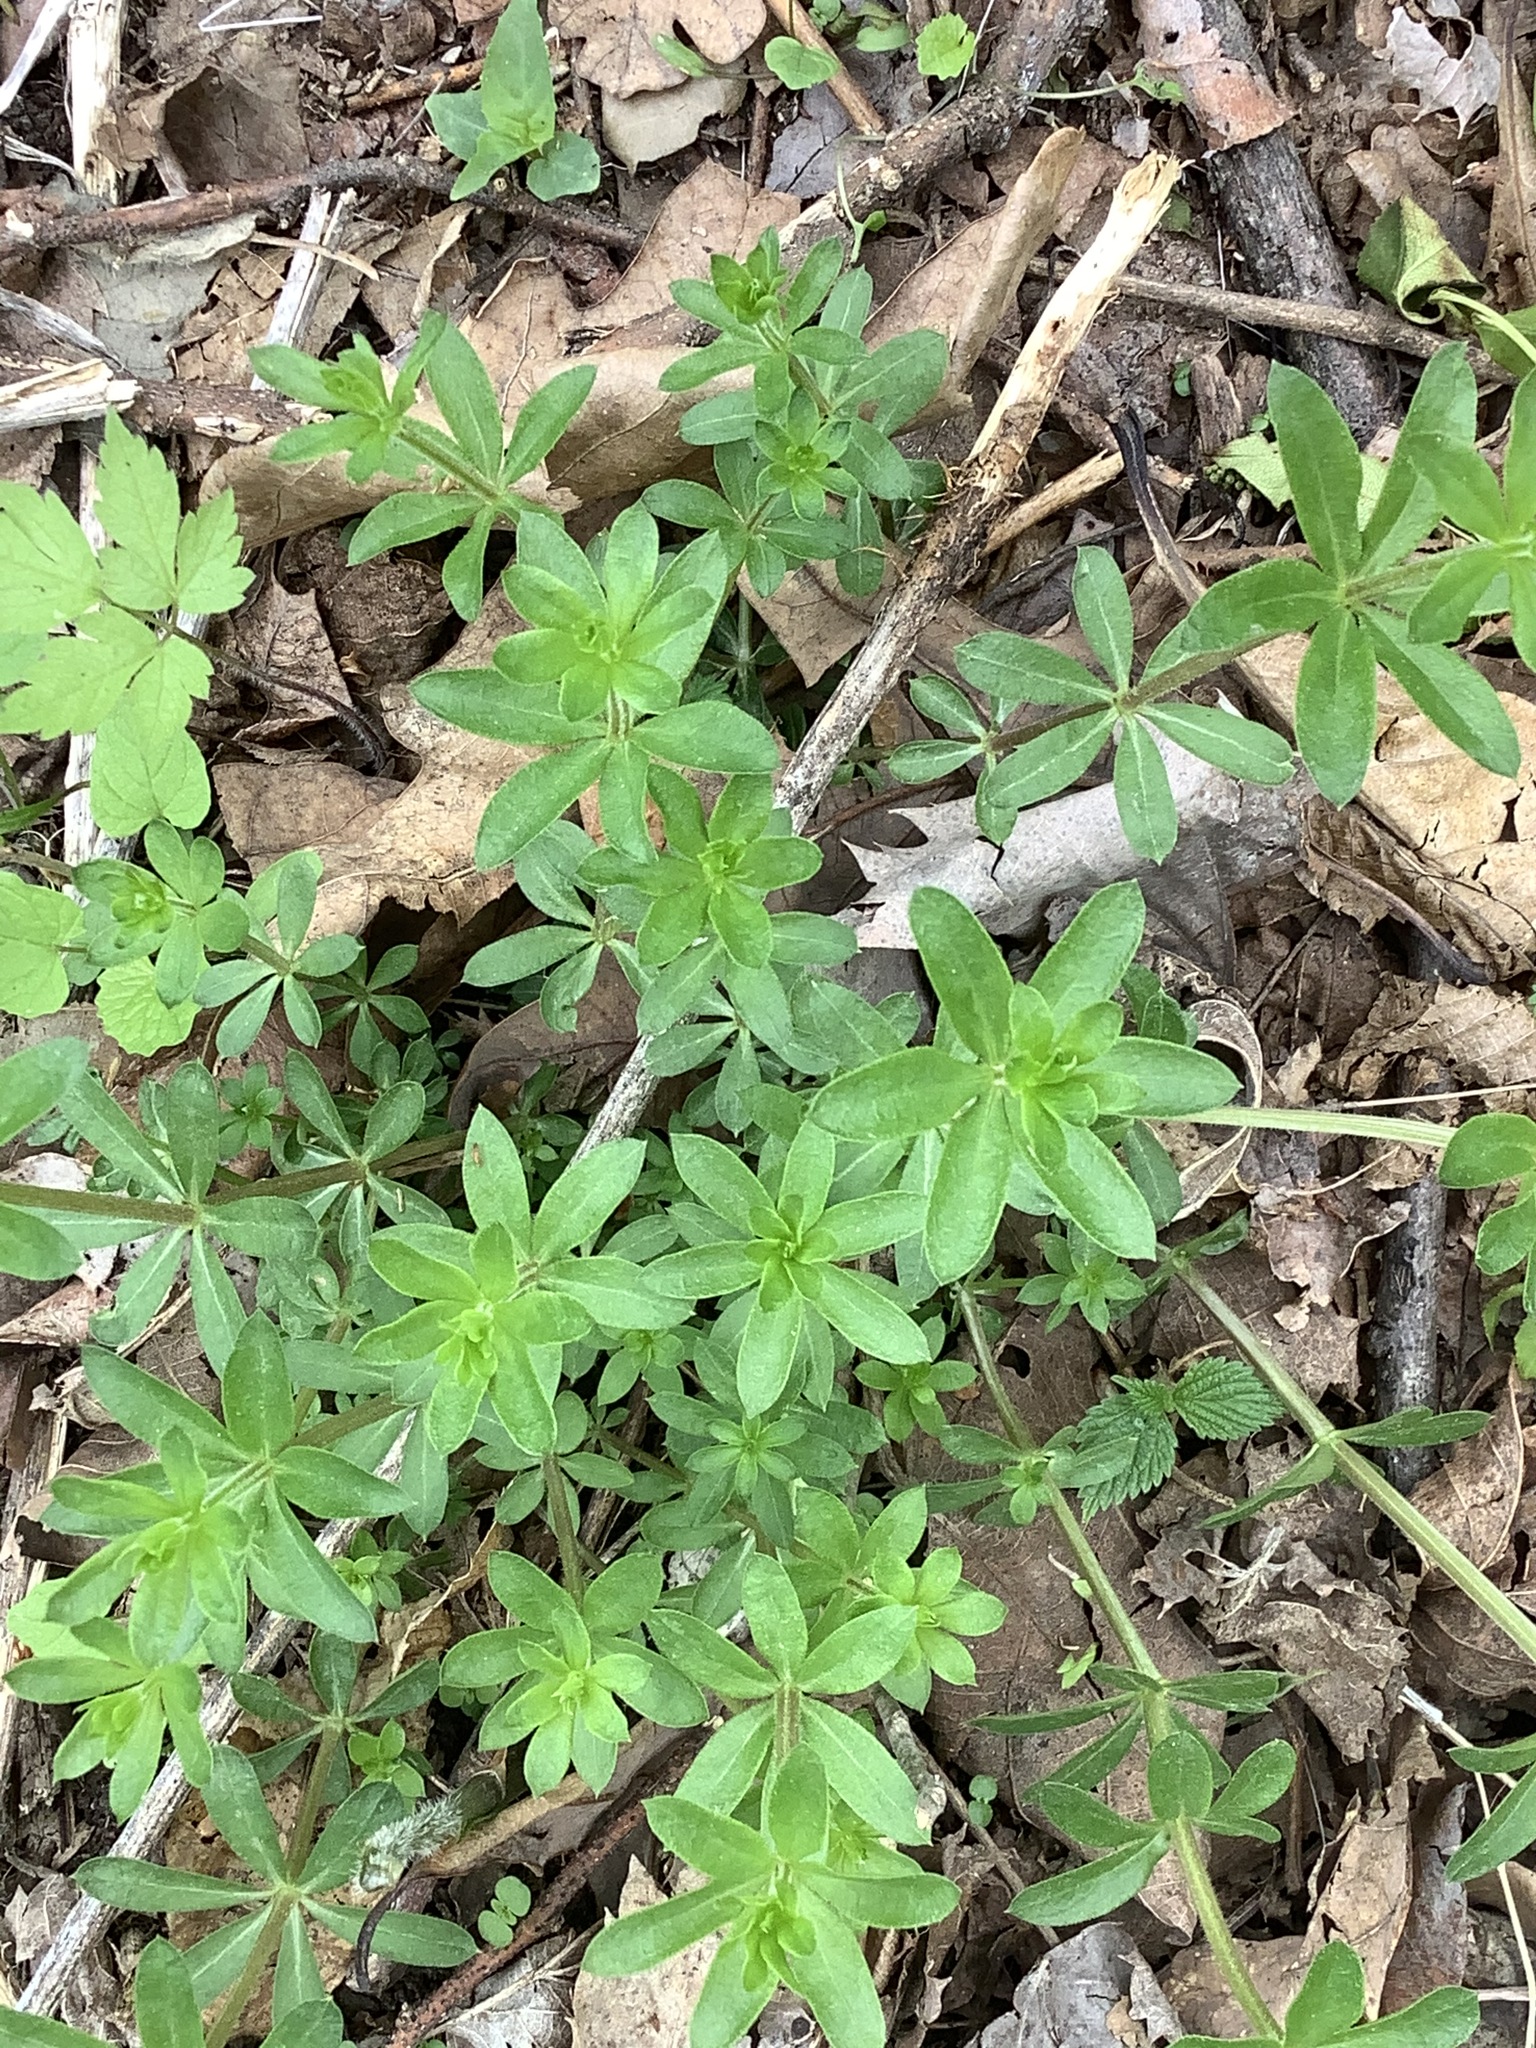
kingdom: Plantae
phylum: Tracheophyta
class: Magnoliopsida
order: Gentianales
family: Rubiaceae
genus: Galium
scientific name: Galium triflorum
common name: Fragrant bedstraw
